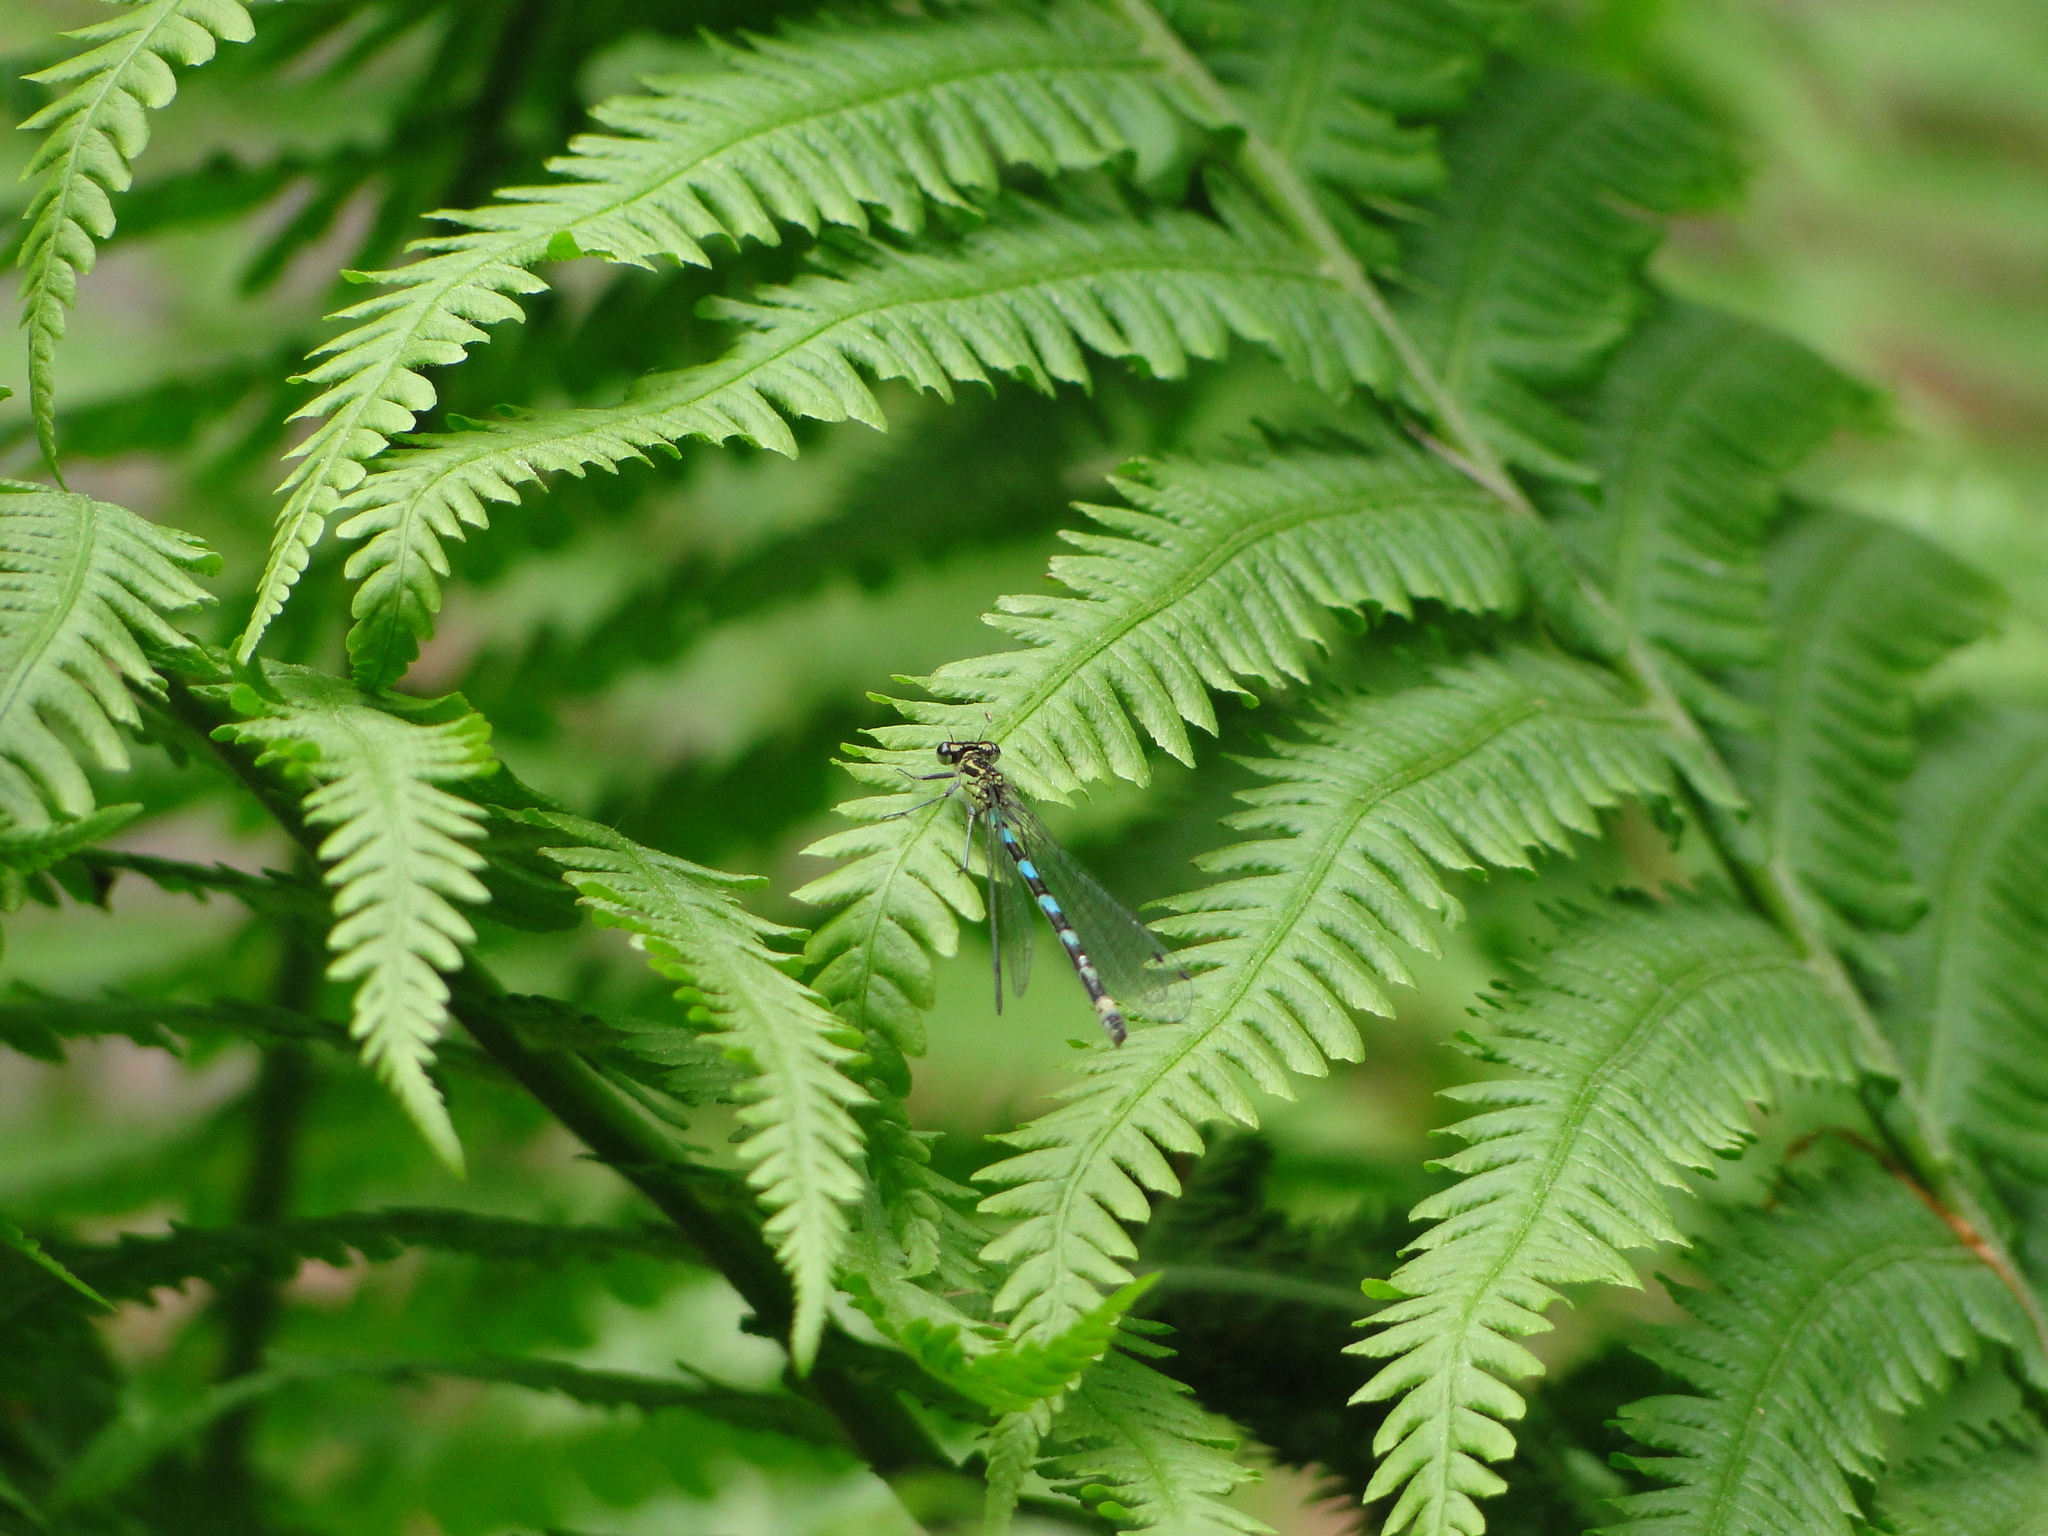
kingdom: Animalia
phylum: Arthropoda
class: Insecta
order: Odonata
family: Coenagrionidae
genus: Coenagrion
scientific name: Coenagrion pulchellum
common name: Variable bluet
